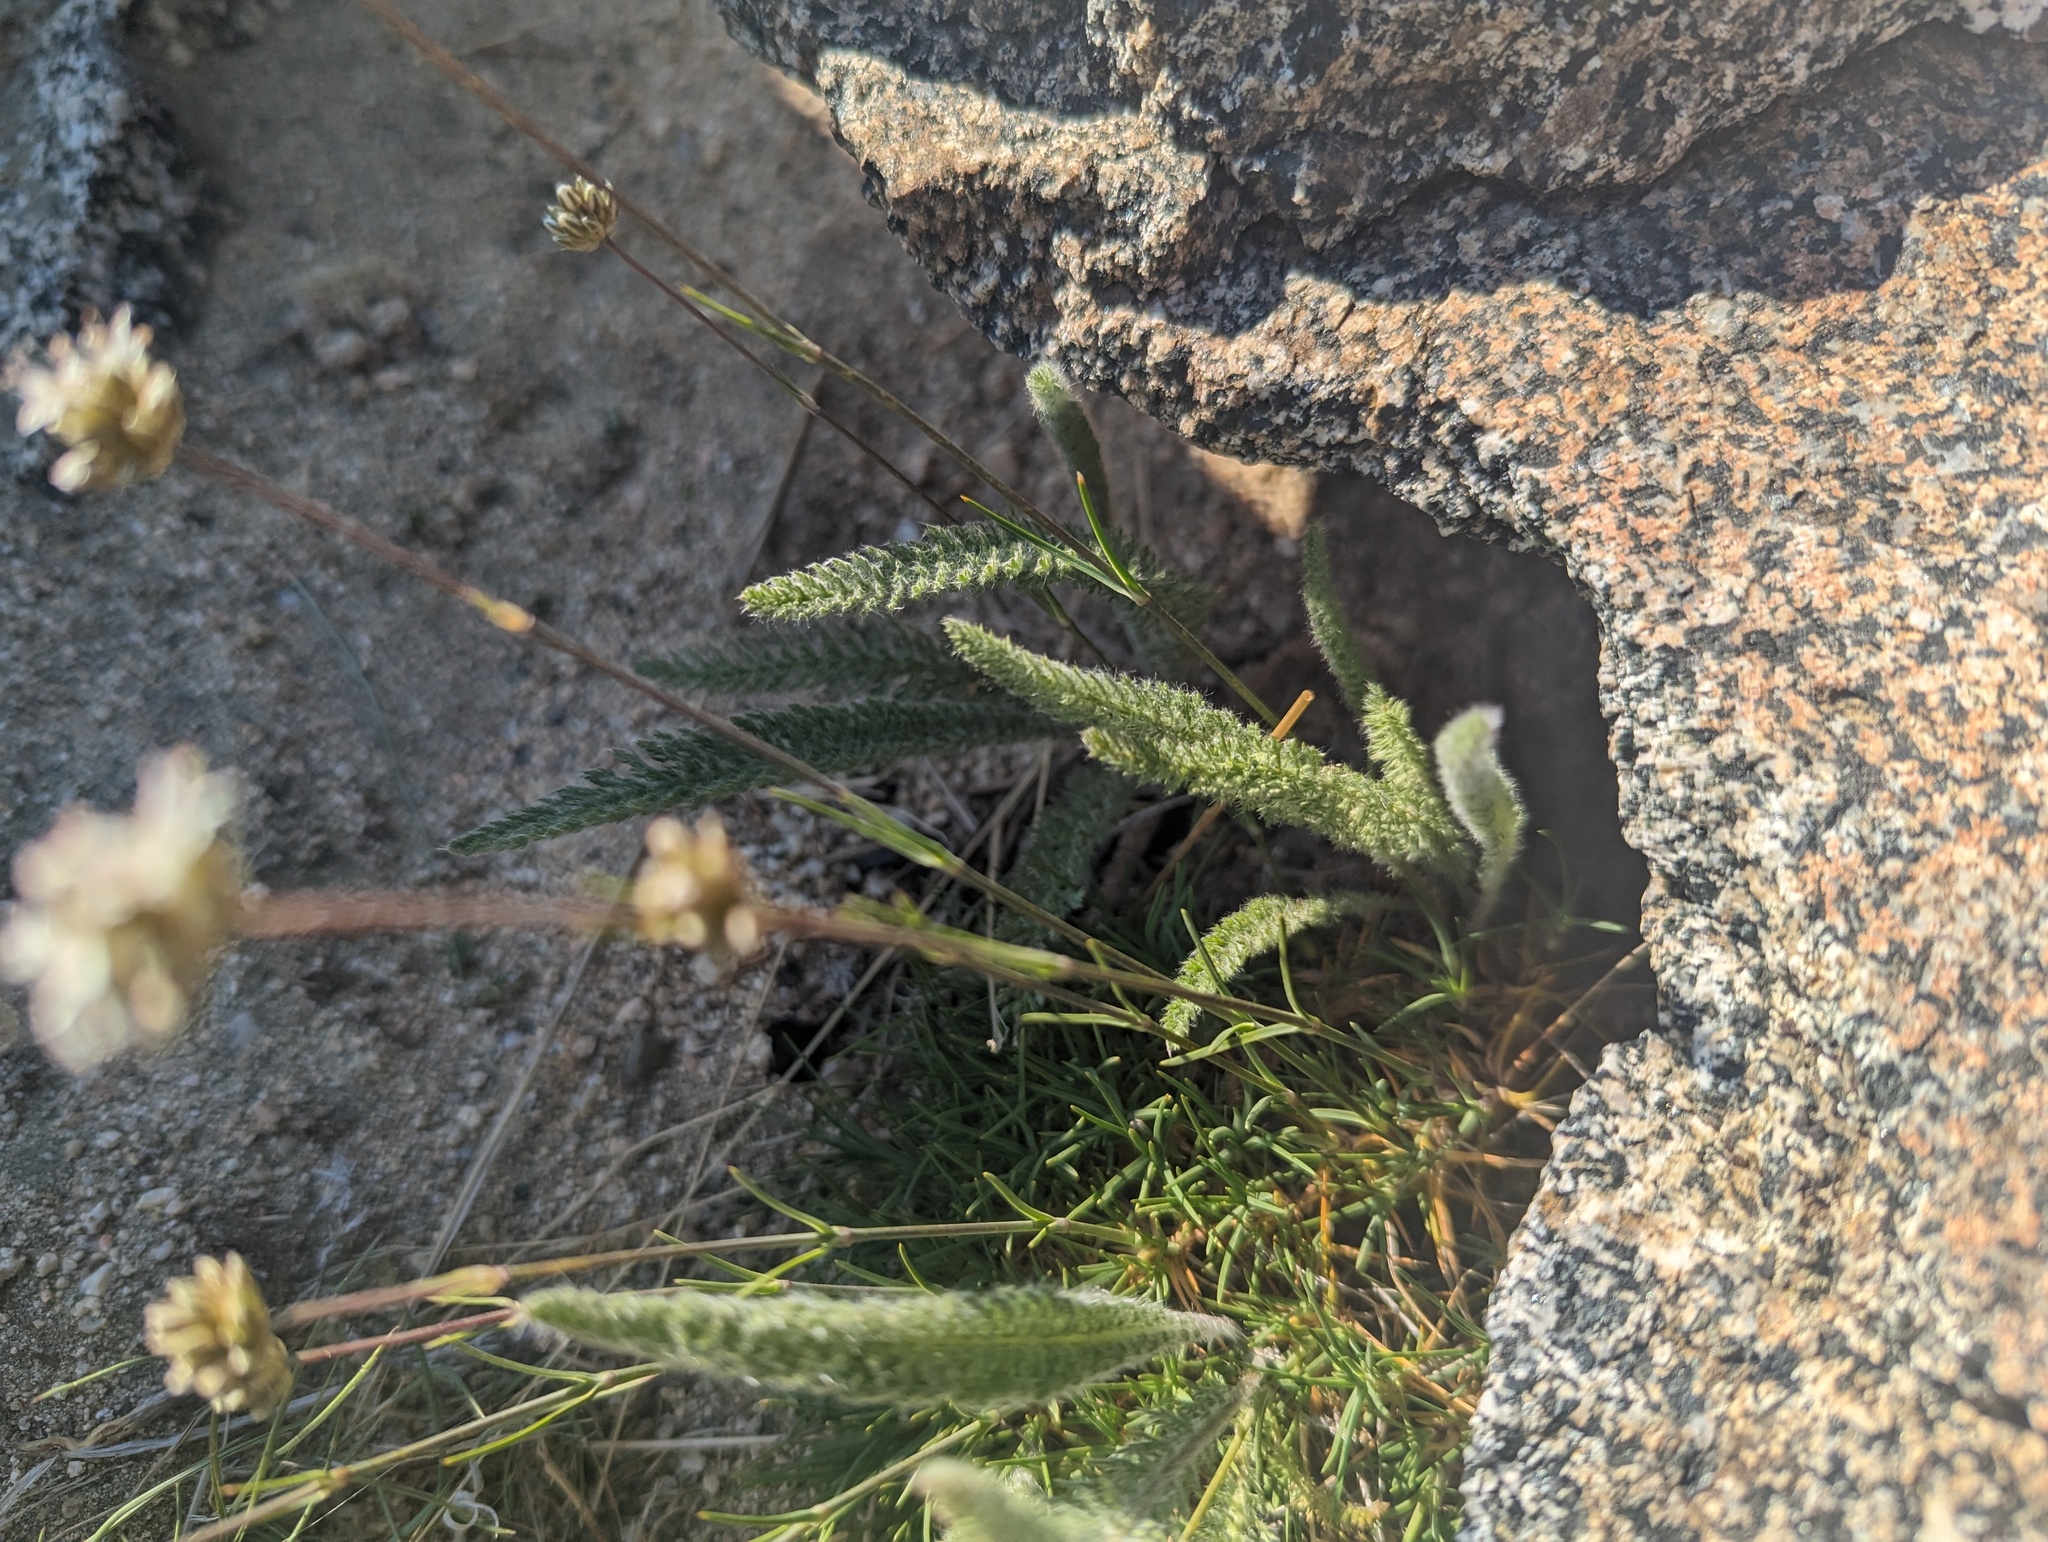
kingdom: Plantae
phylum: Tracheophyta
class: Magnoliopsida
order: Caryophyllales
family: Caryophyllaceae
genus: Eremogone
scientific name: Eremogone congesta
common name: Ballhead sandwort
